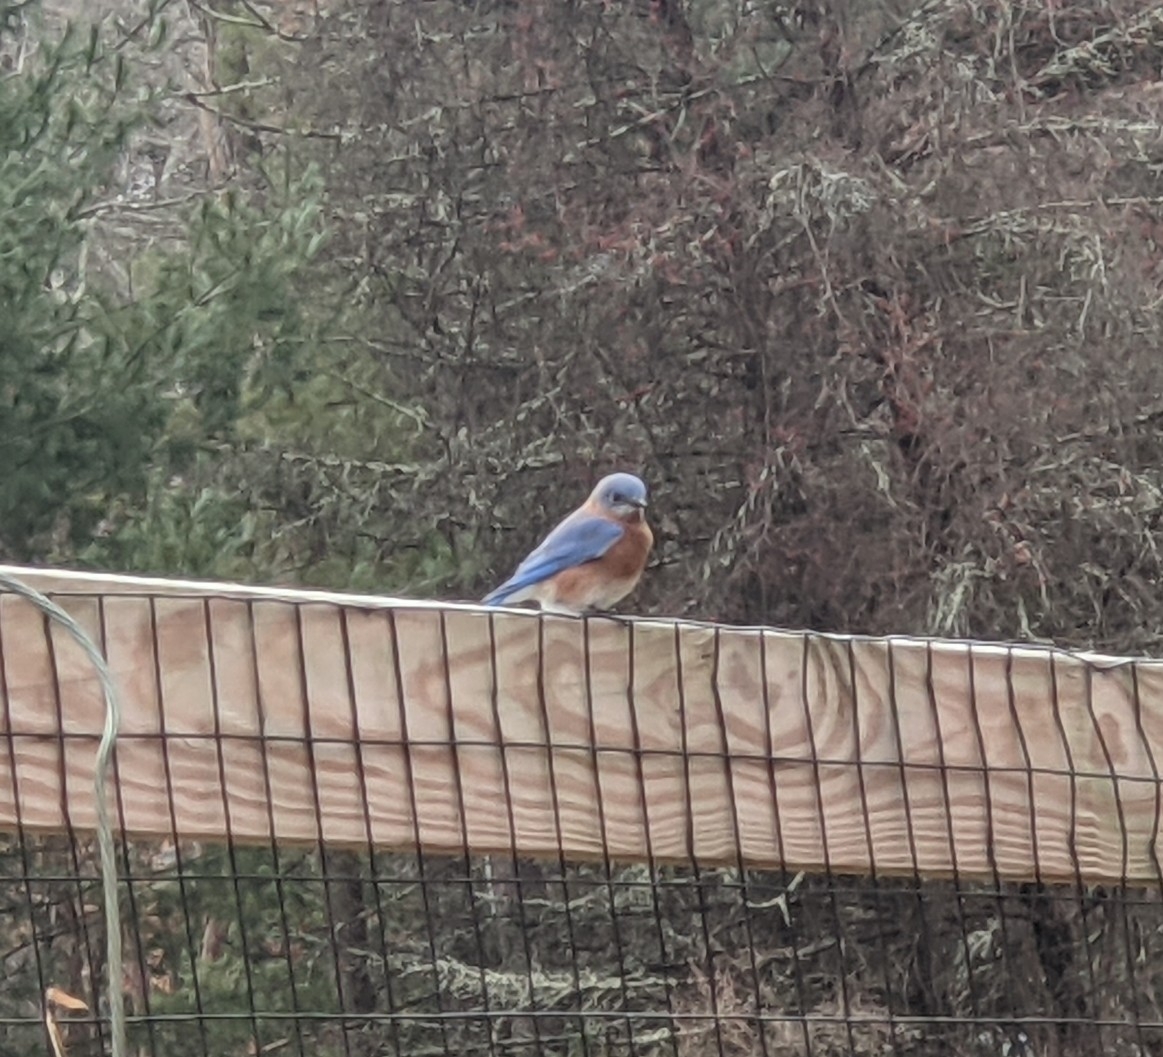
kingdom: Animalia
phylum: Chordata
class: Aves
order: Passeriformes
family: Turdidae
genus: Sialia
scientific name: Sialia sialis
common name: Eastern bluebird
